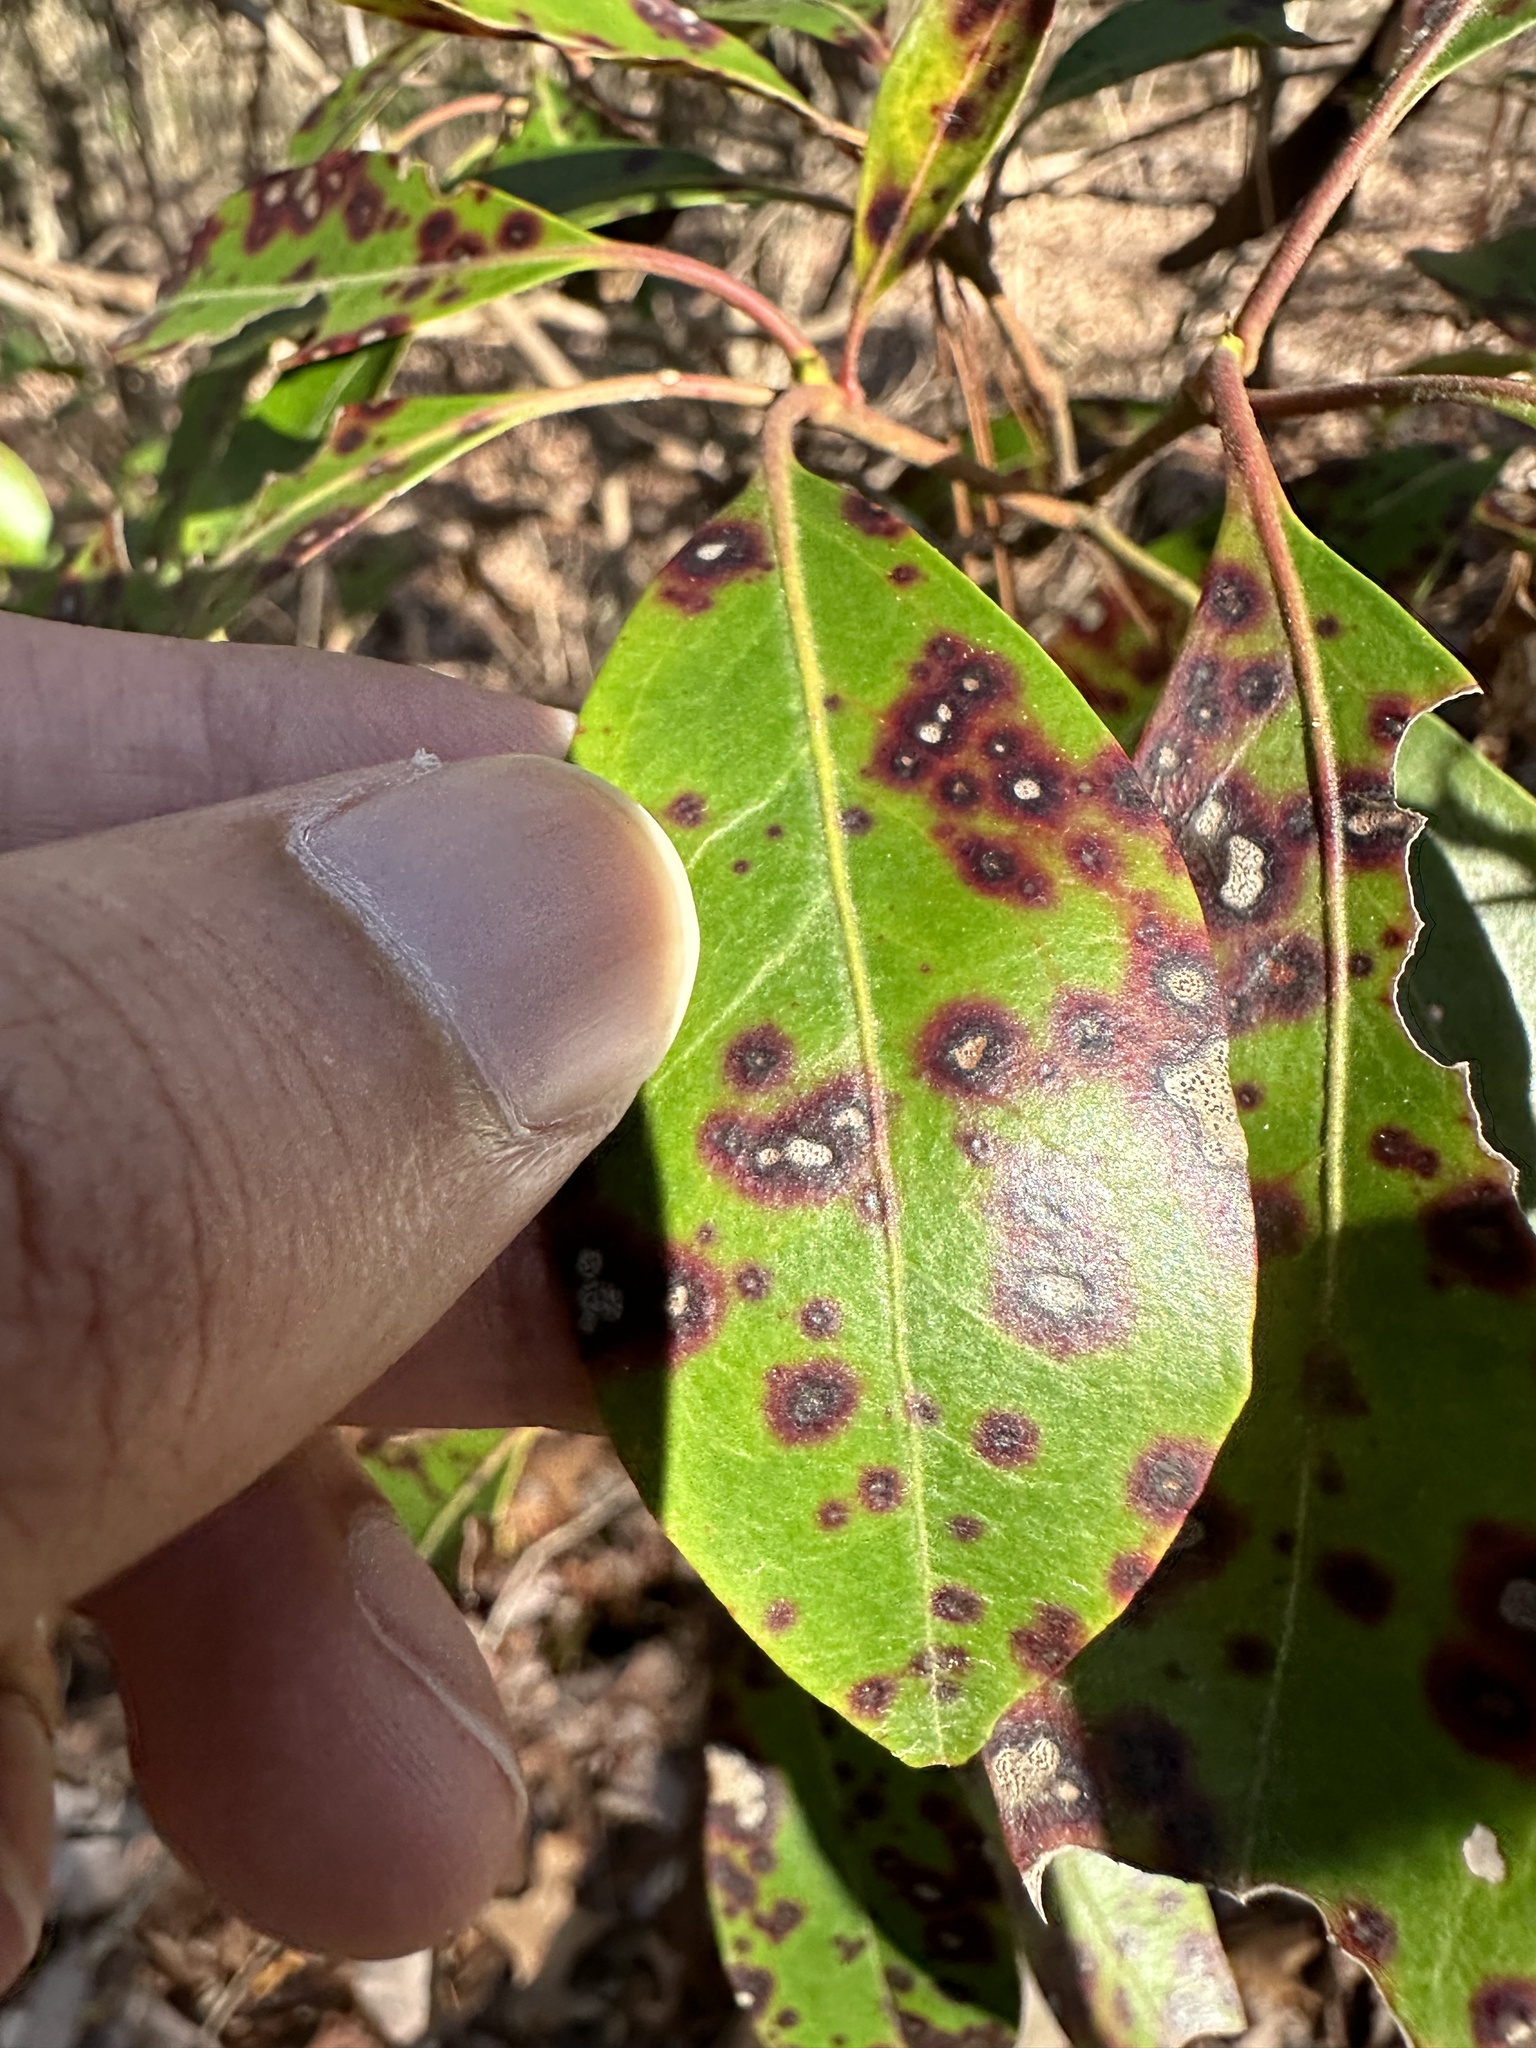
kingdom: Fungi
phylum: Ascomycota
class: Dothideomycetes
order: Mycosphaerellales
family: Mycosphaerellaceae
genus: Mycosphaerella
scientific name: Mycosphaerella colorata
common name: Mountain laurel leaf spot
